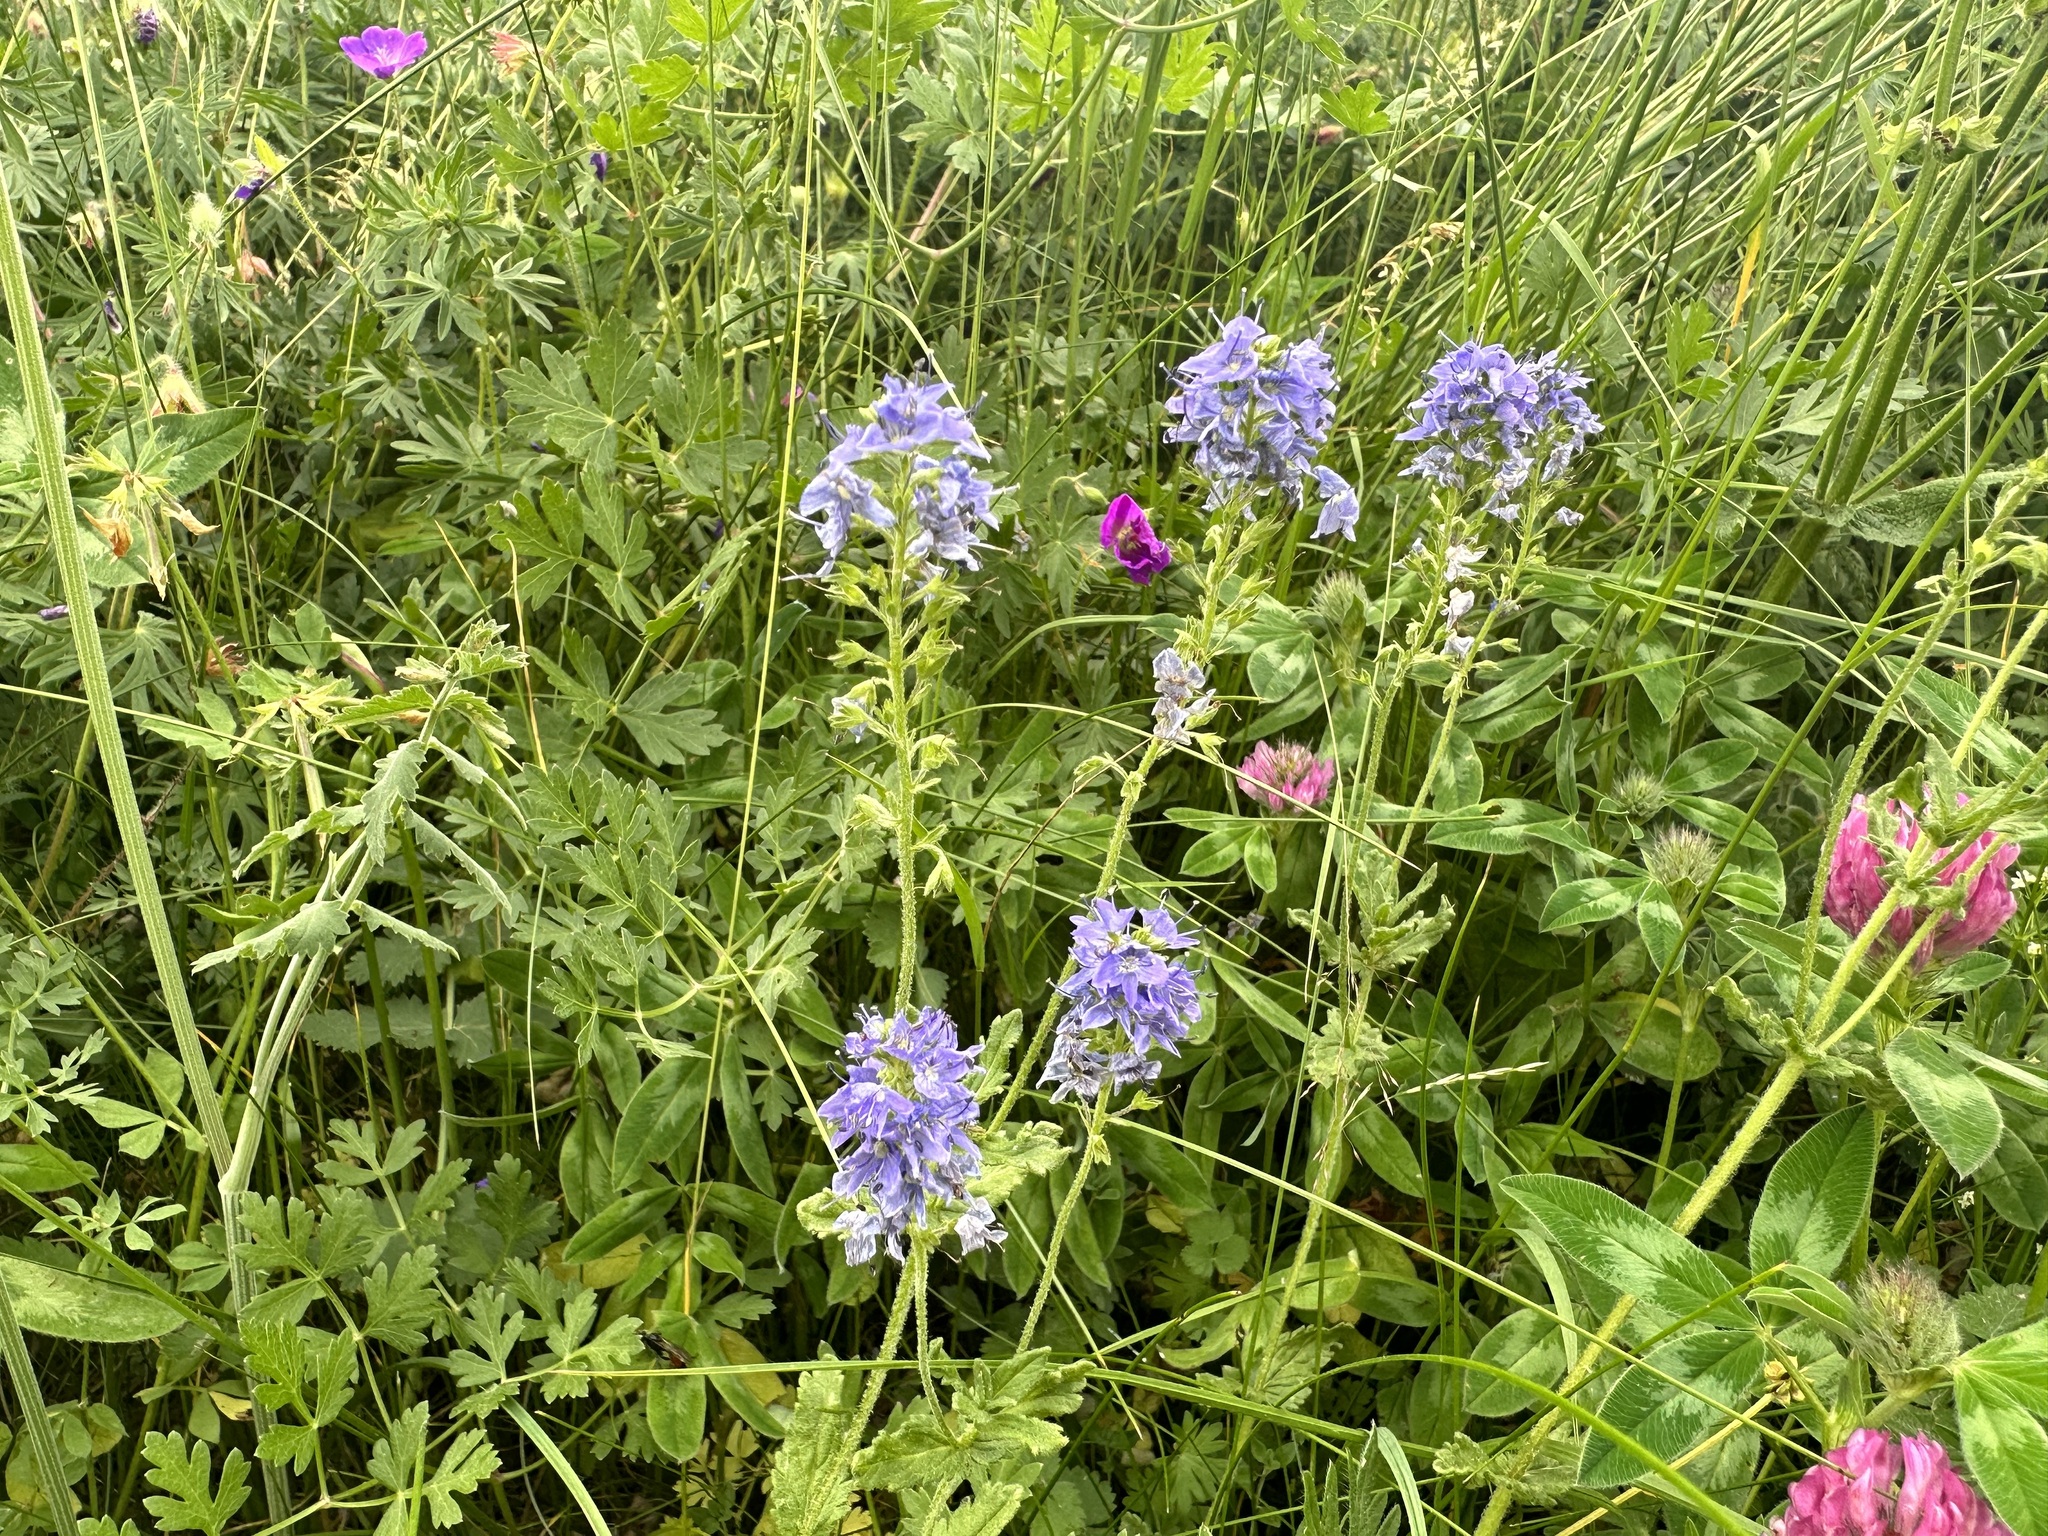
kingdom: Plantae
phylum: Tracheophyta
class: Magnoliopsida
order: Lamiales
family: Plantaginaceae
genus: Veronica
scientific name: Veronica teucrium
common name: Large speedwell
